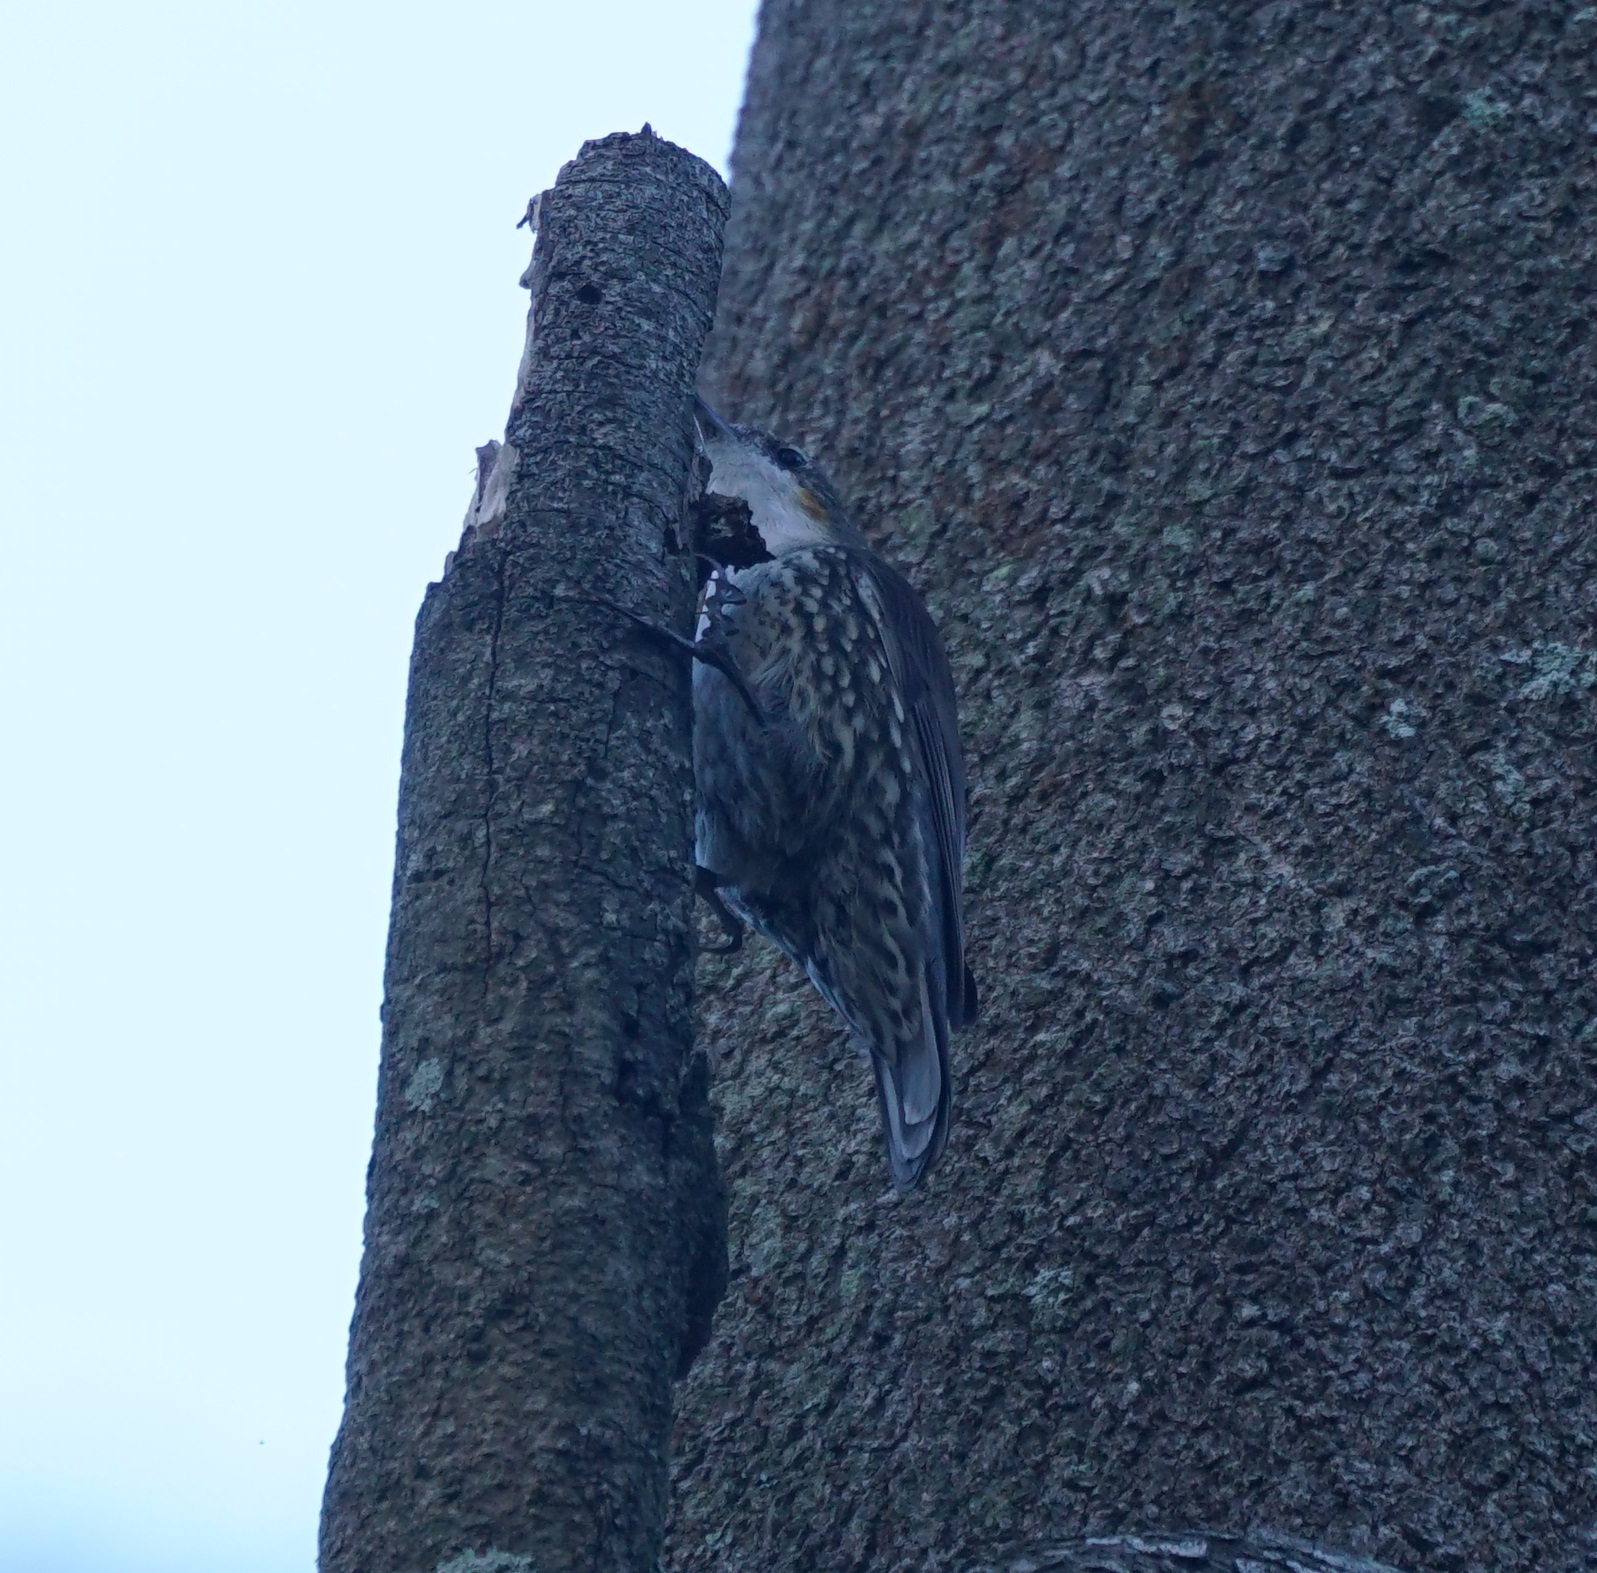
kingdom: Animalia
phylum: Chordata
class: Aves
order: Passeriformes
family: Climacteridae
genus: Cormobates
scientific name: Cormobates leucophaea
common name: White-throated treecreeper
